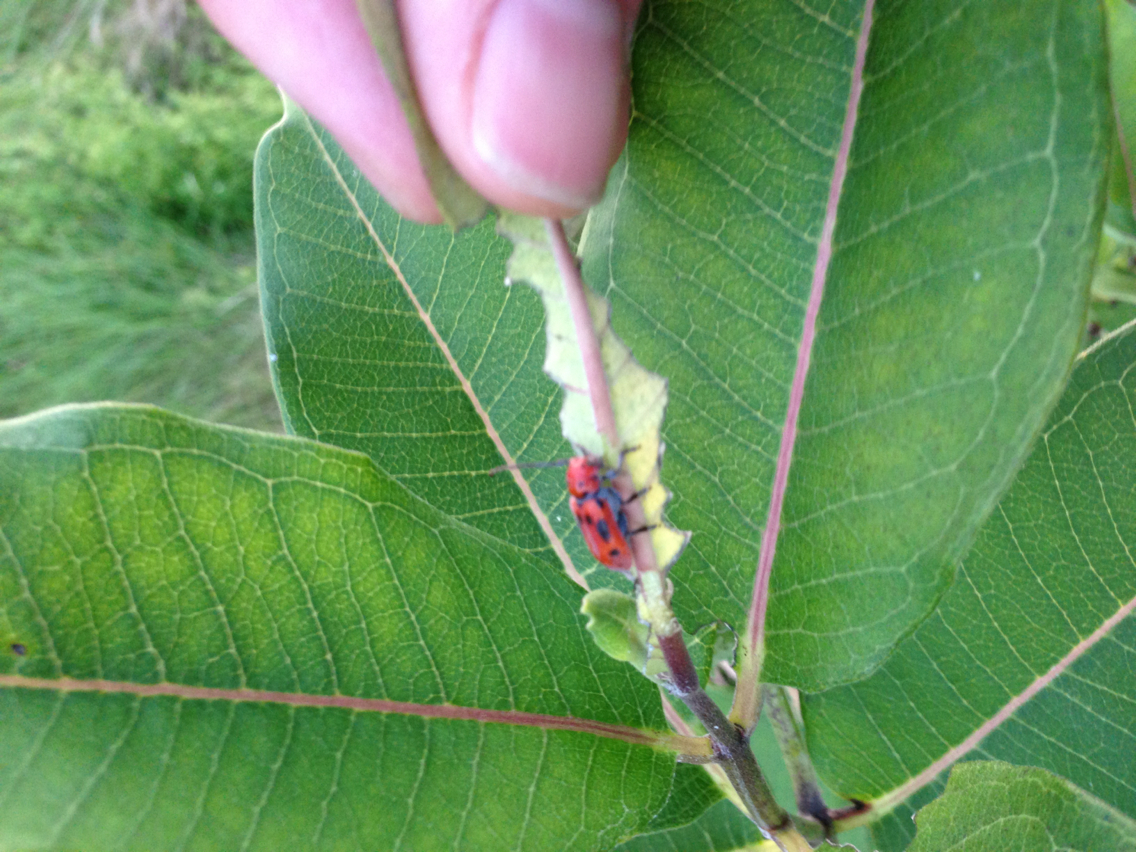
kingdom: Animalia
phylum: Arthropoda
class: Insecta
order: Coleoptera
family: Cerambycidae
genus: Tetraopes
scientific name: Tetraopes tetrophthalmus
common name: Red milkweed beetle
